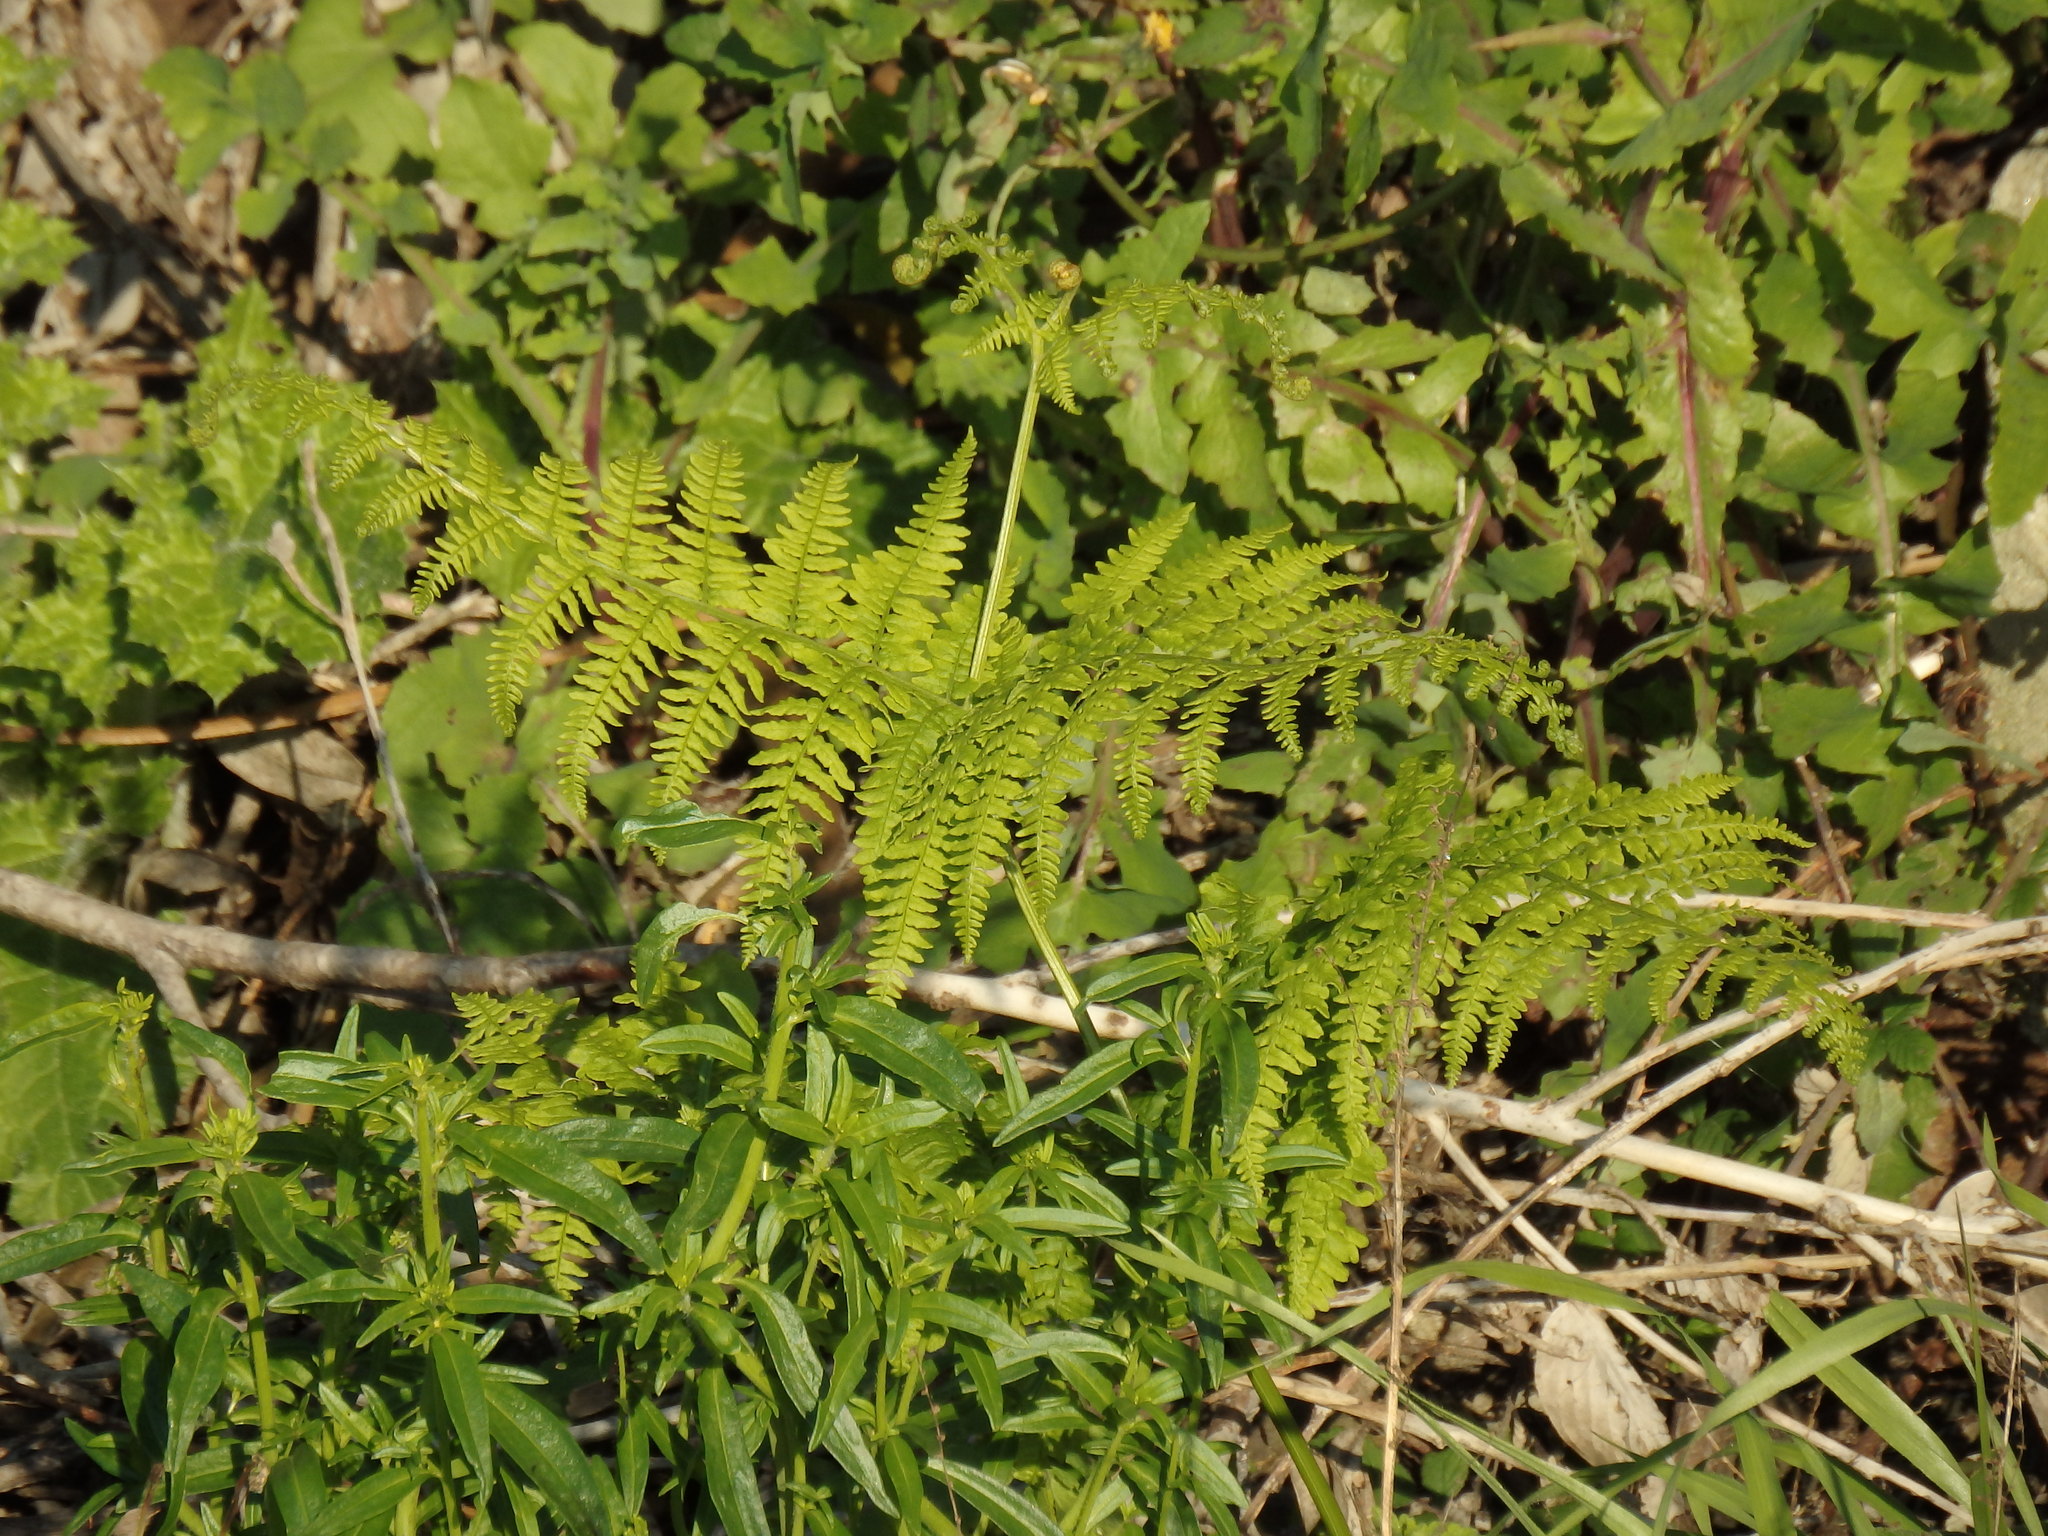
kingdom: Plantae
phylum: Tracheophyta
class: Polypodiopsida
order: Polypodiales
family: Dennstaedtiaceae
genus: Pteridium
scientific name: Pteridium aquilinum
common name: Bracken
